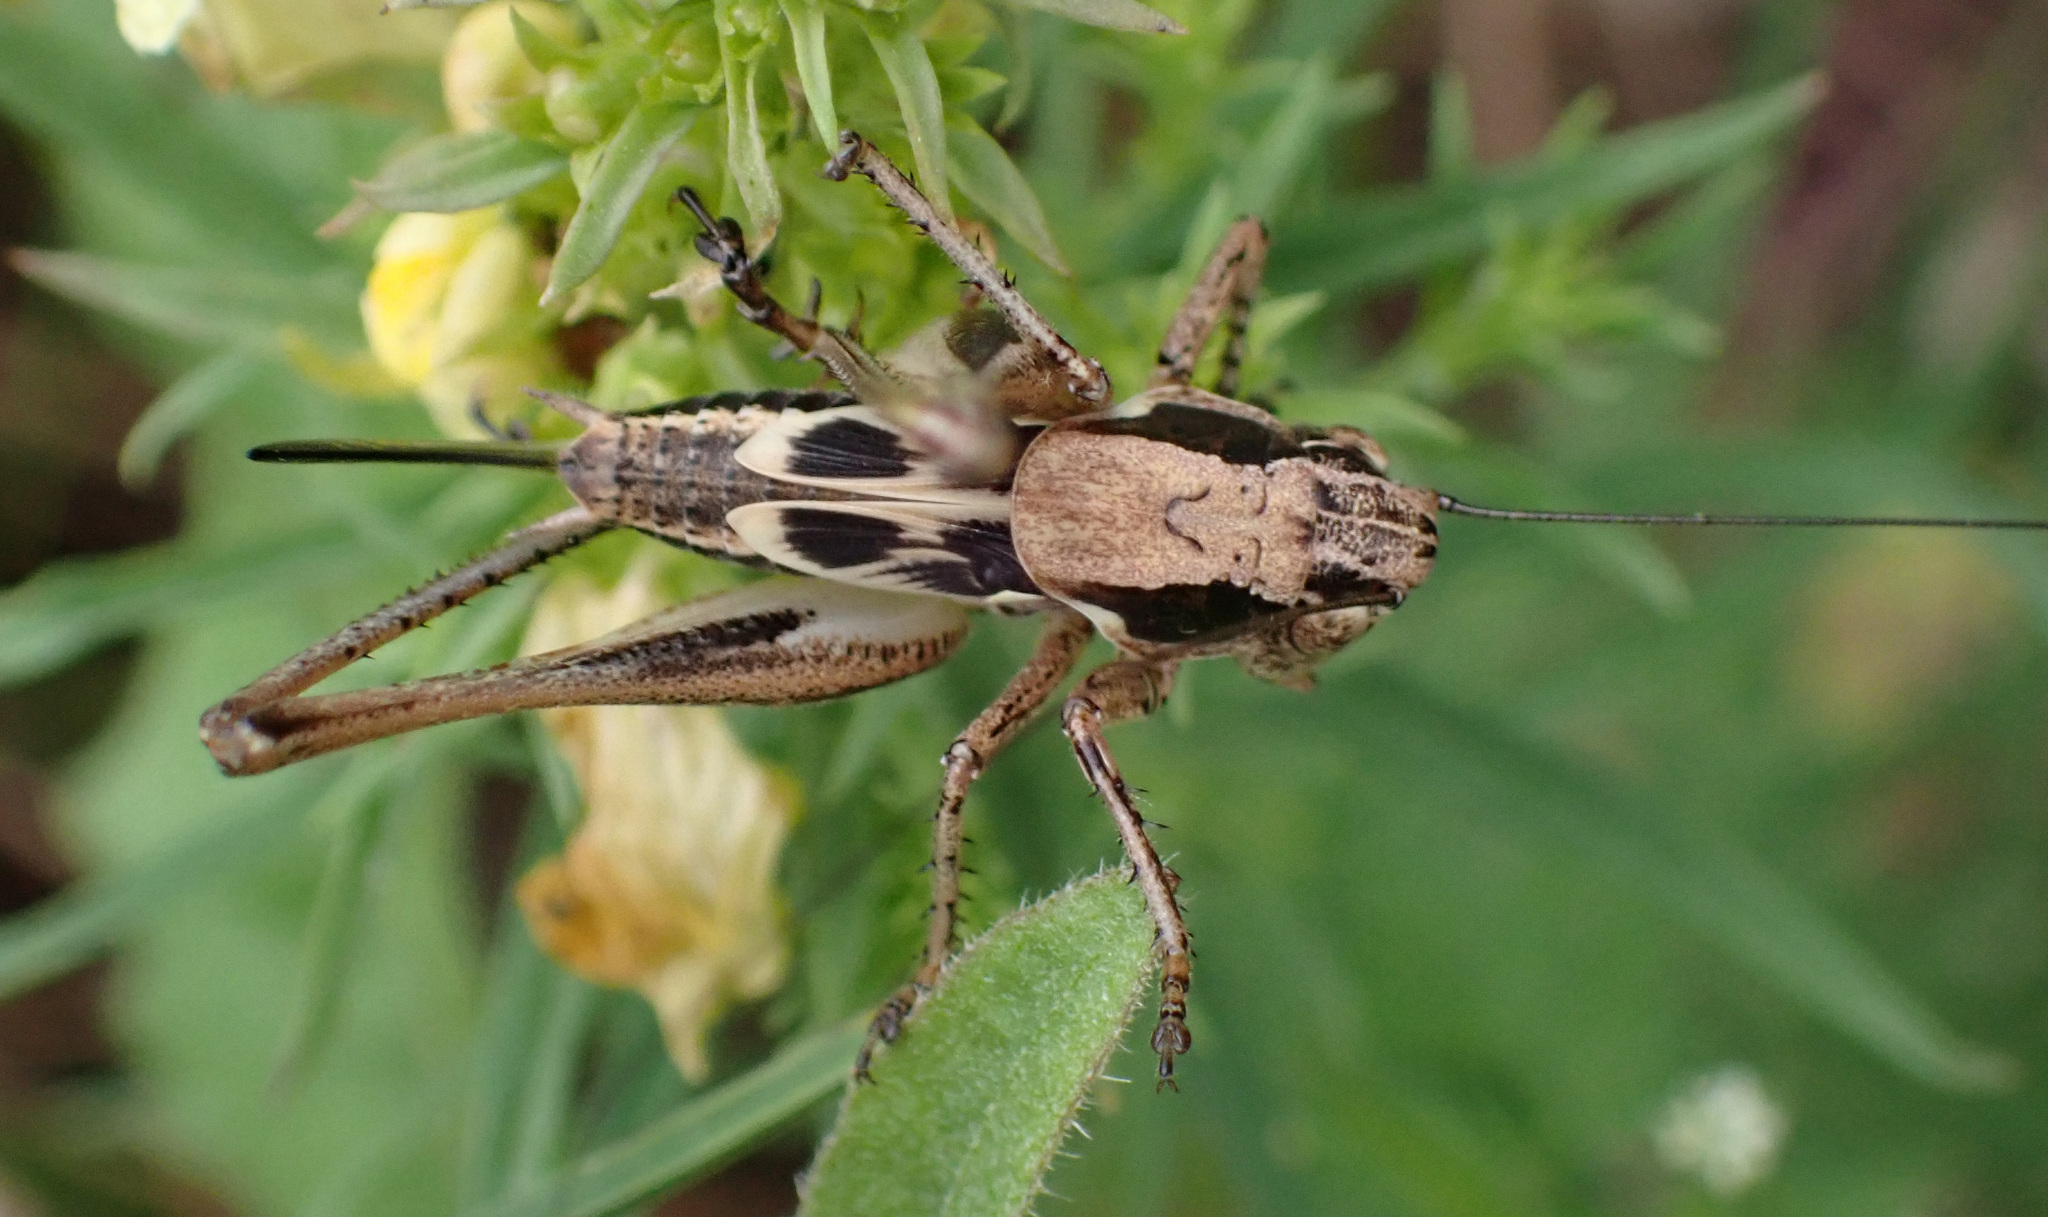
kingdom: Animalia
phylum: Arthropoda
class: Insecta
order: Orthoptera
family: Tettigoniidae
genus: Platycleis
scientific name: Platycleis grisea
